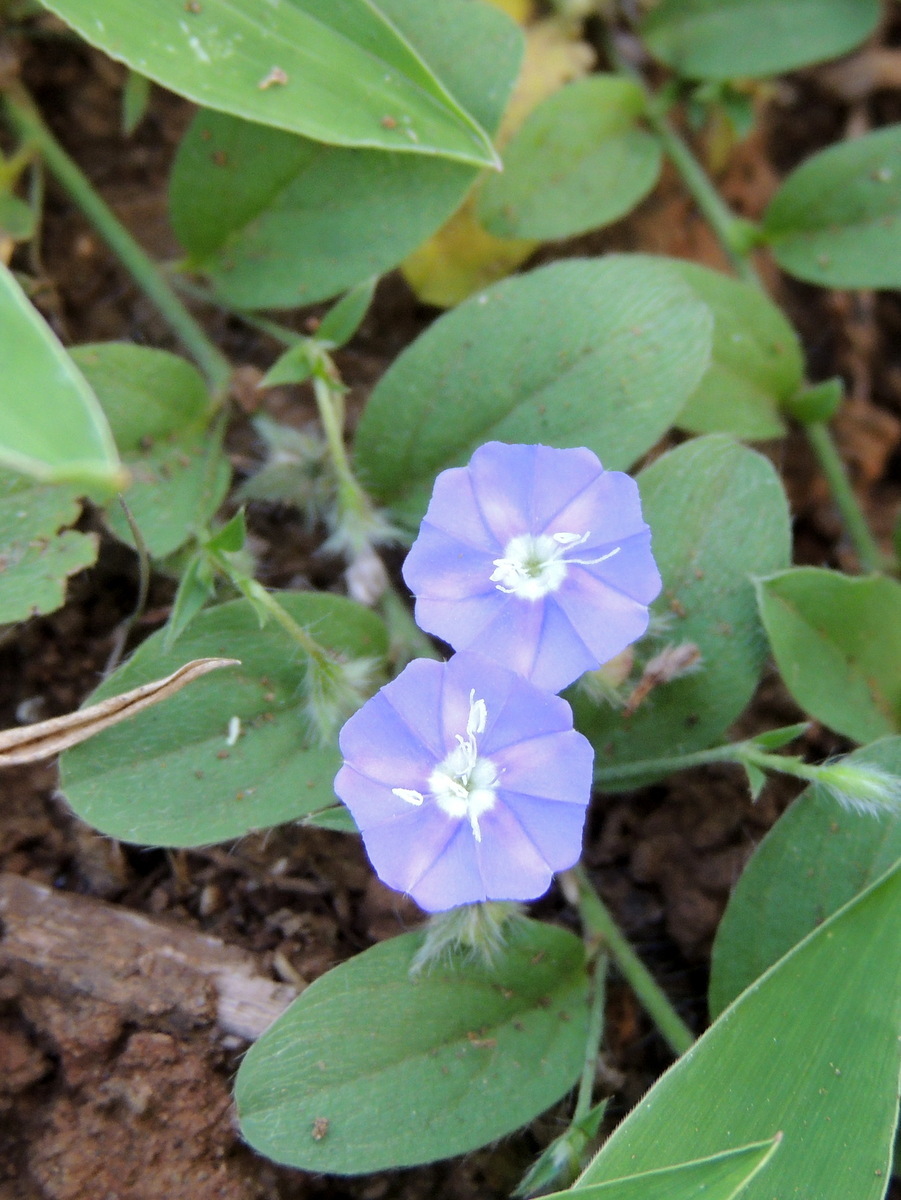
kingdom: Plantae
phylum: Tracheophyta
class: Magnoliopsida
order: Solanales
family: Convolvulaceae
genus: Evolvulus
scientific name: Evolvulus alsinoides
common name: Slender dwarf morning-glory
